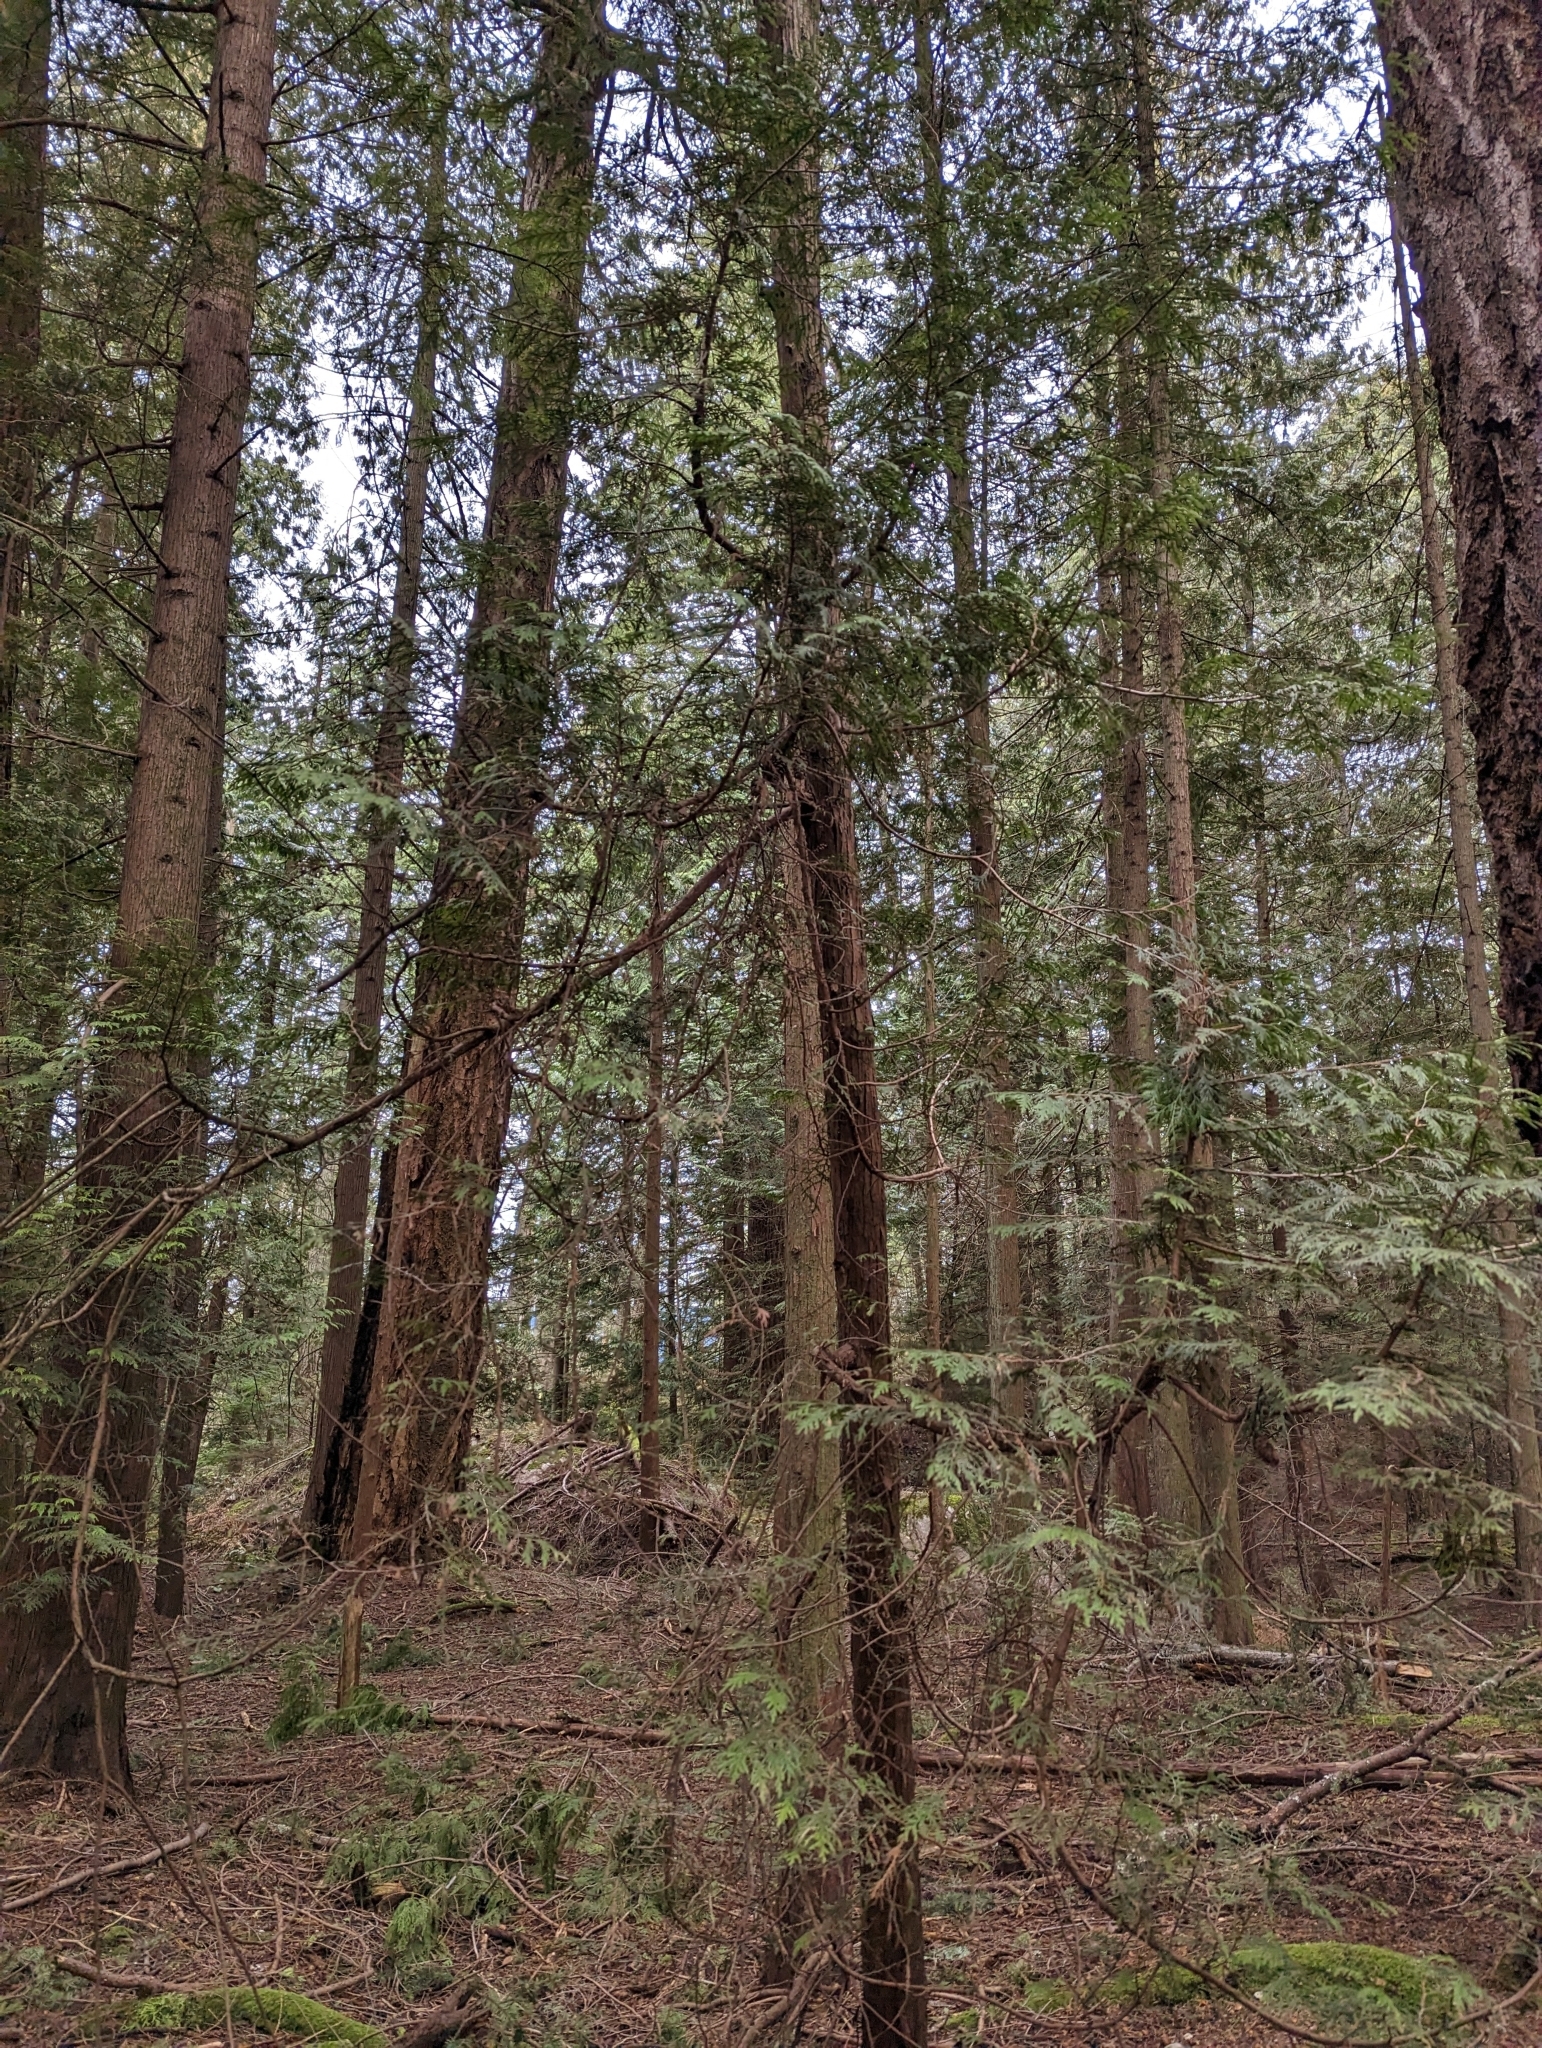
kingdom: Plantae
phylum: Tracheophyta
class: Pinopsida
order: Pinales
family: Cupressaceae
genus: Thuja
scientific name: Thuja plicata
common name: Western red-cedar
